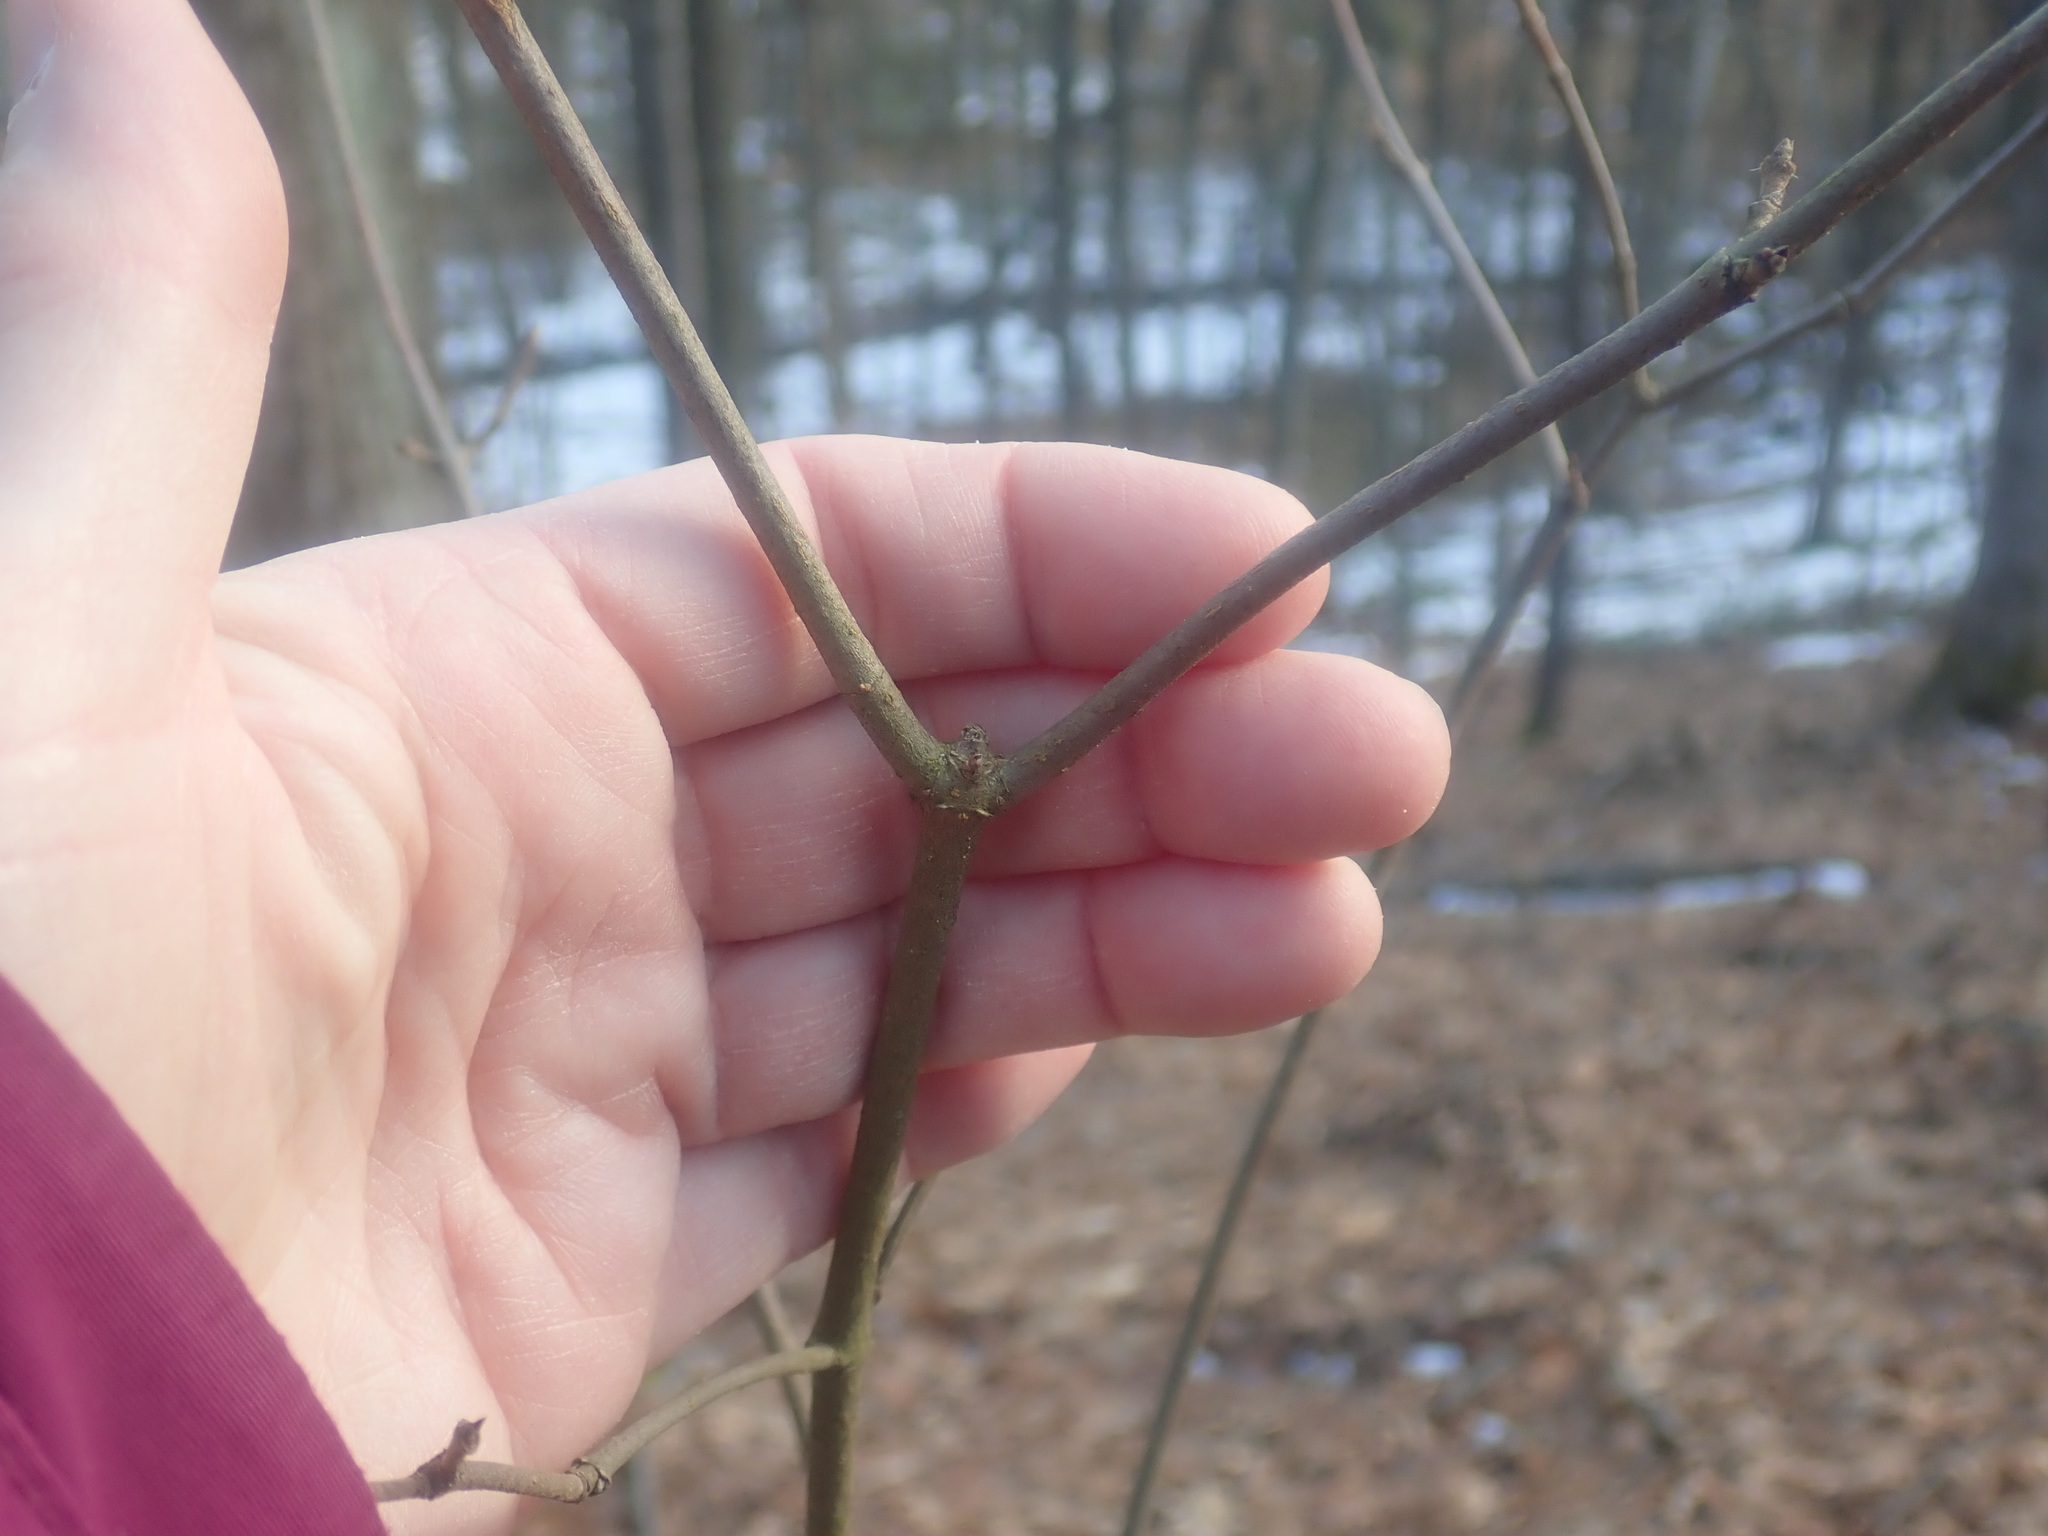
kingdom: Plantae
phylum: Tracheophyta
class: Magnoliopsida
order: Dipsacales
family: Viburnaceae
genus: Viburnum
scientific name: Viburnum acerifolium
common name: Dockmackie
